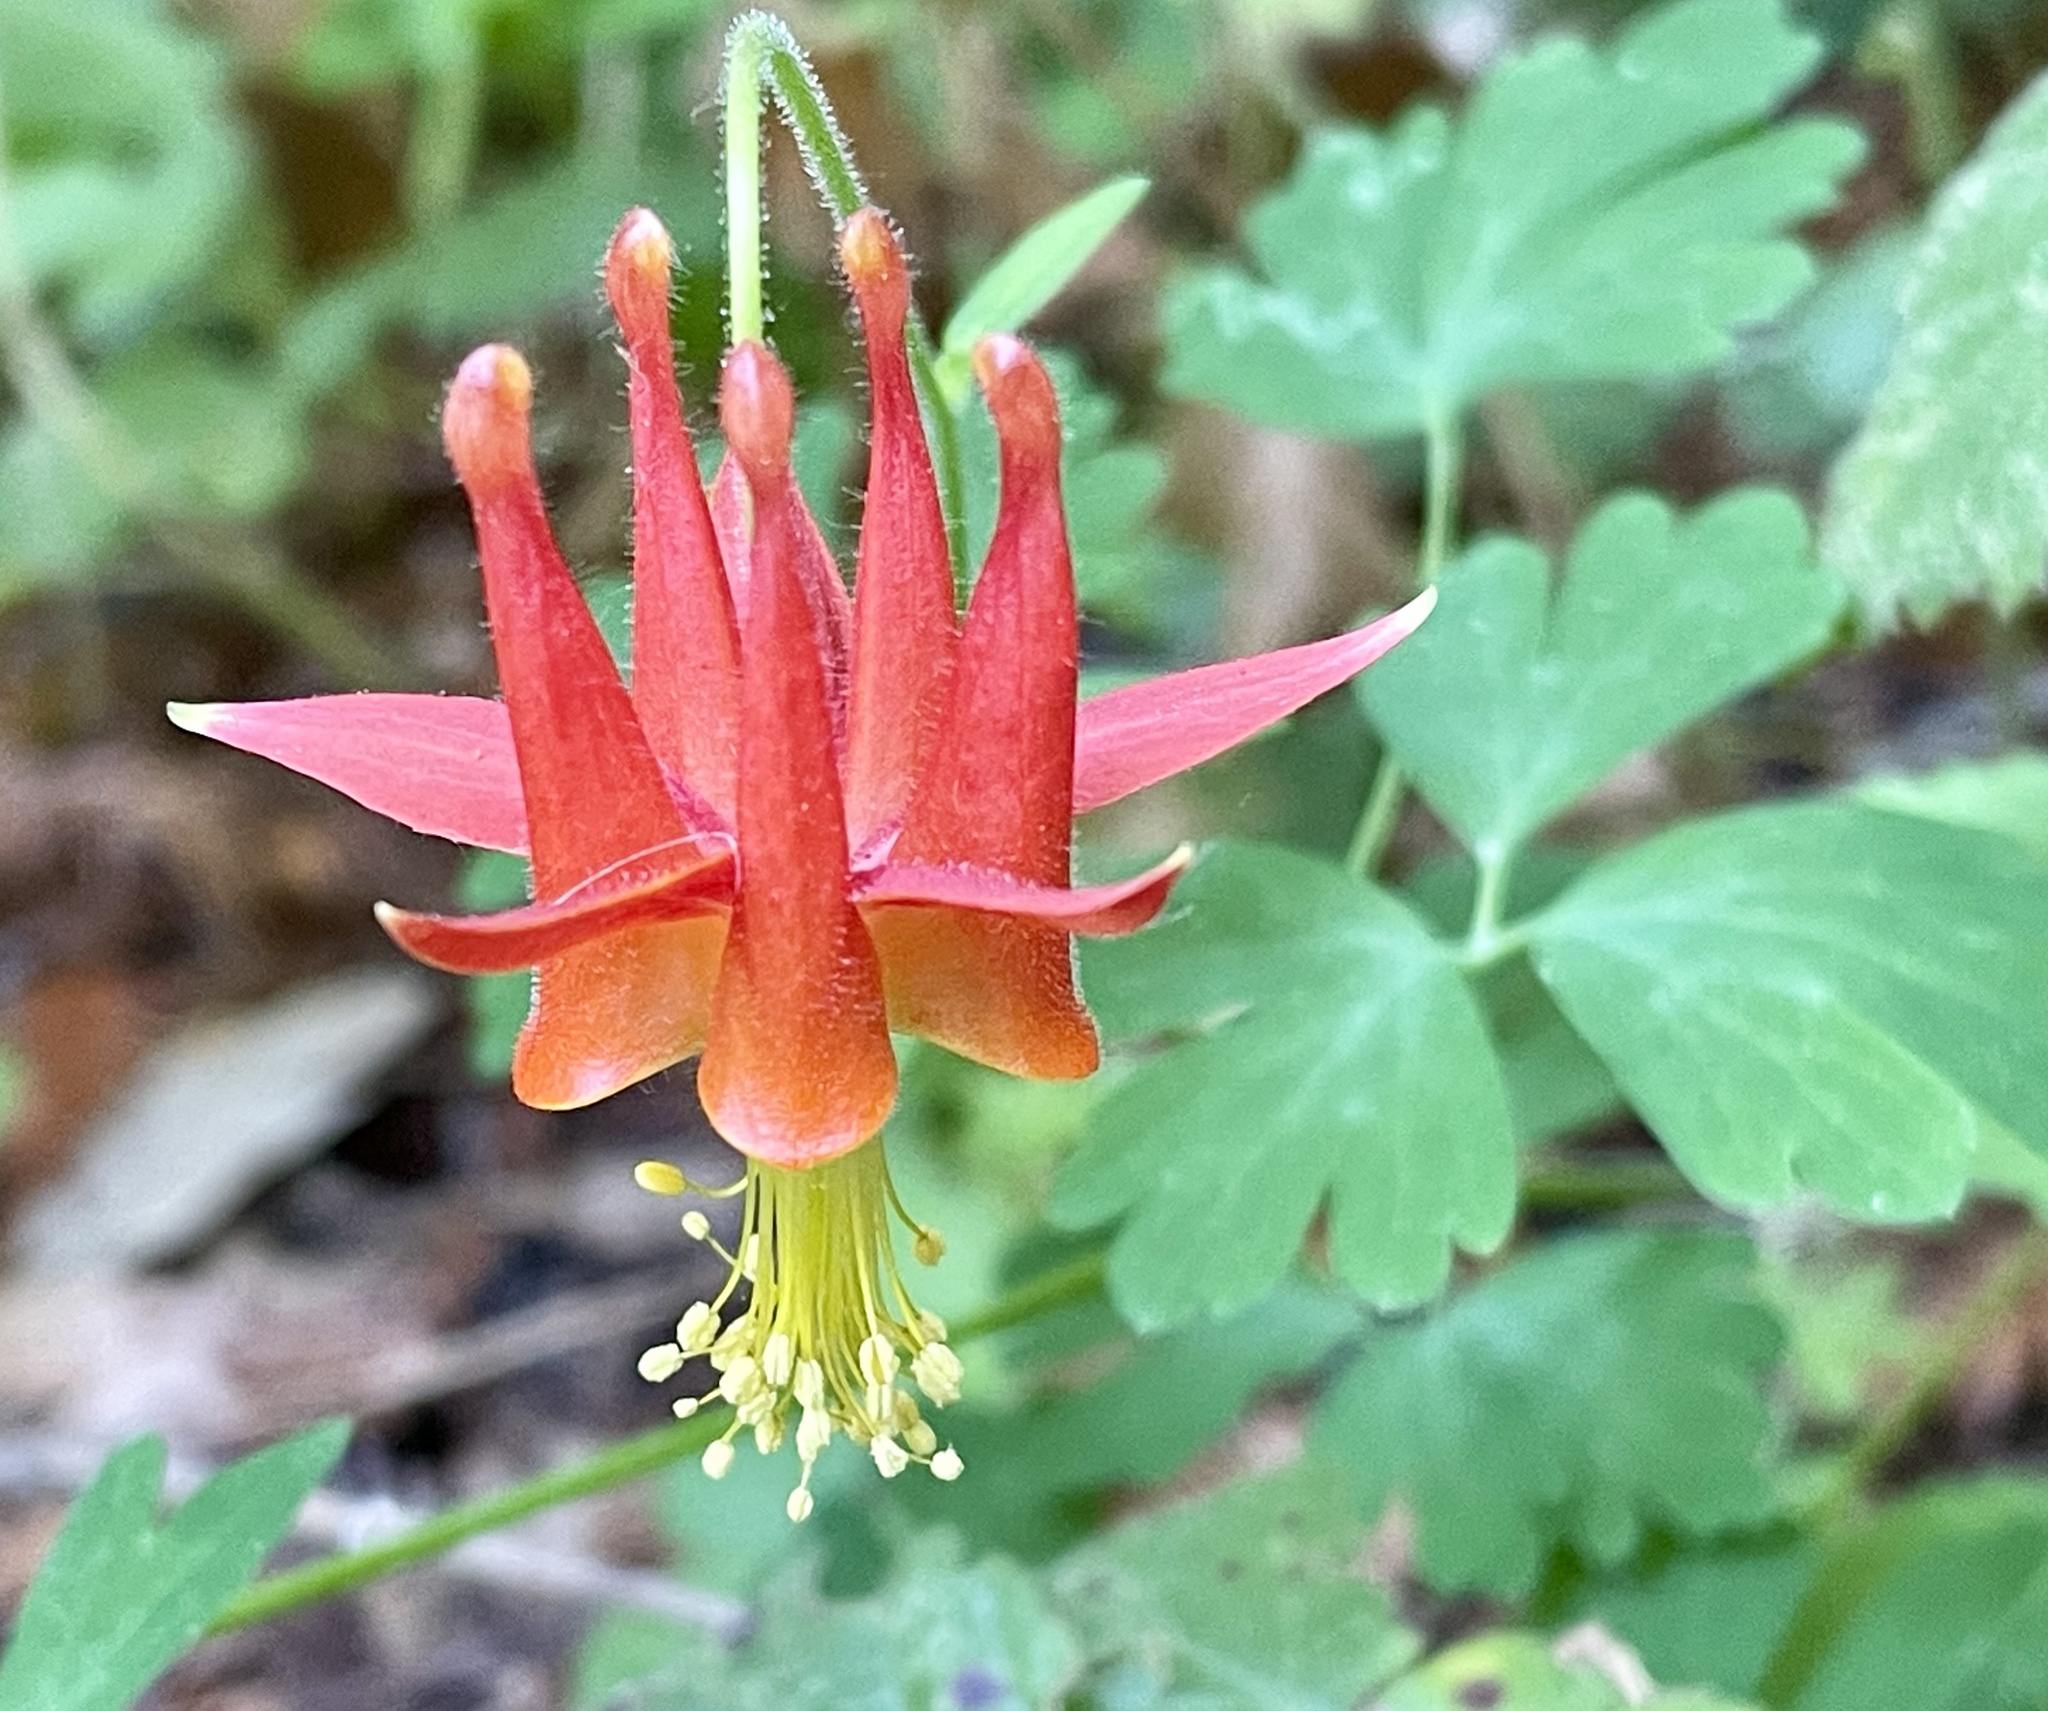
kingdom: Plantae
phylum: Tracheophyta
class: Magnoliopsida
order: Ranunculales
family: Ranunculaceae
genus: Aquilegia
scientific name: Aquilegia formosa
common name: Sitka columbine
